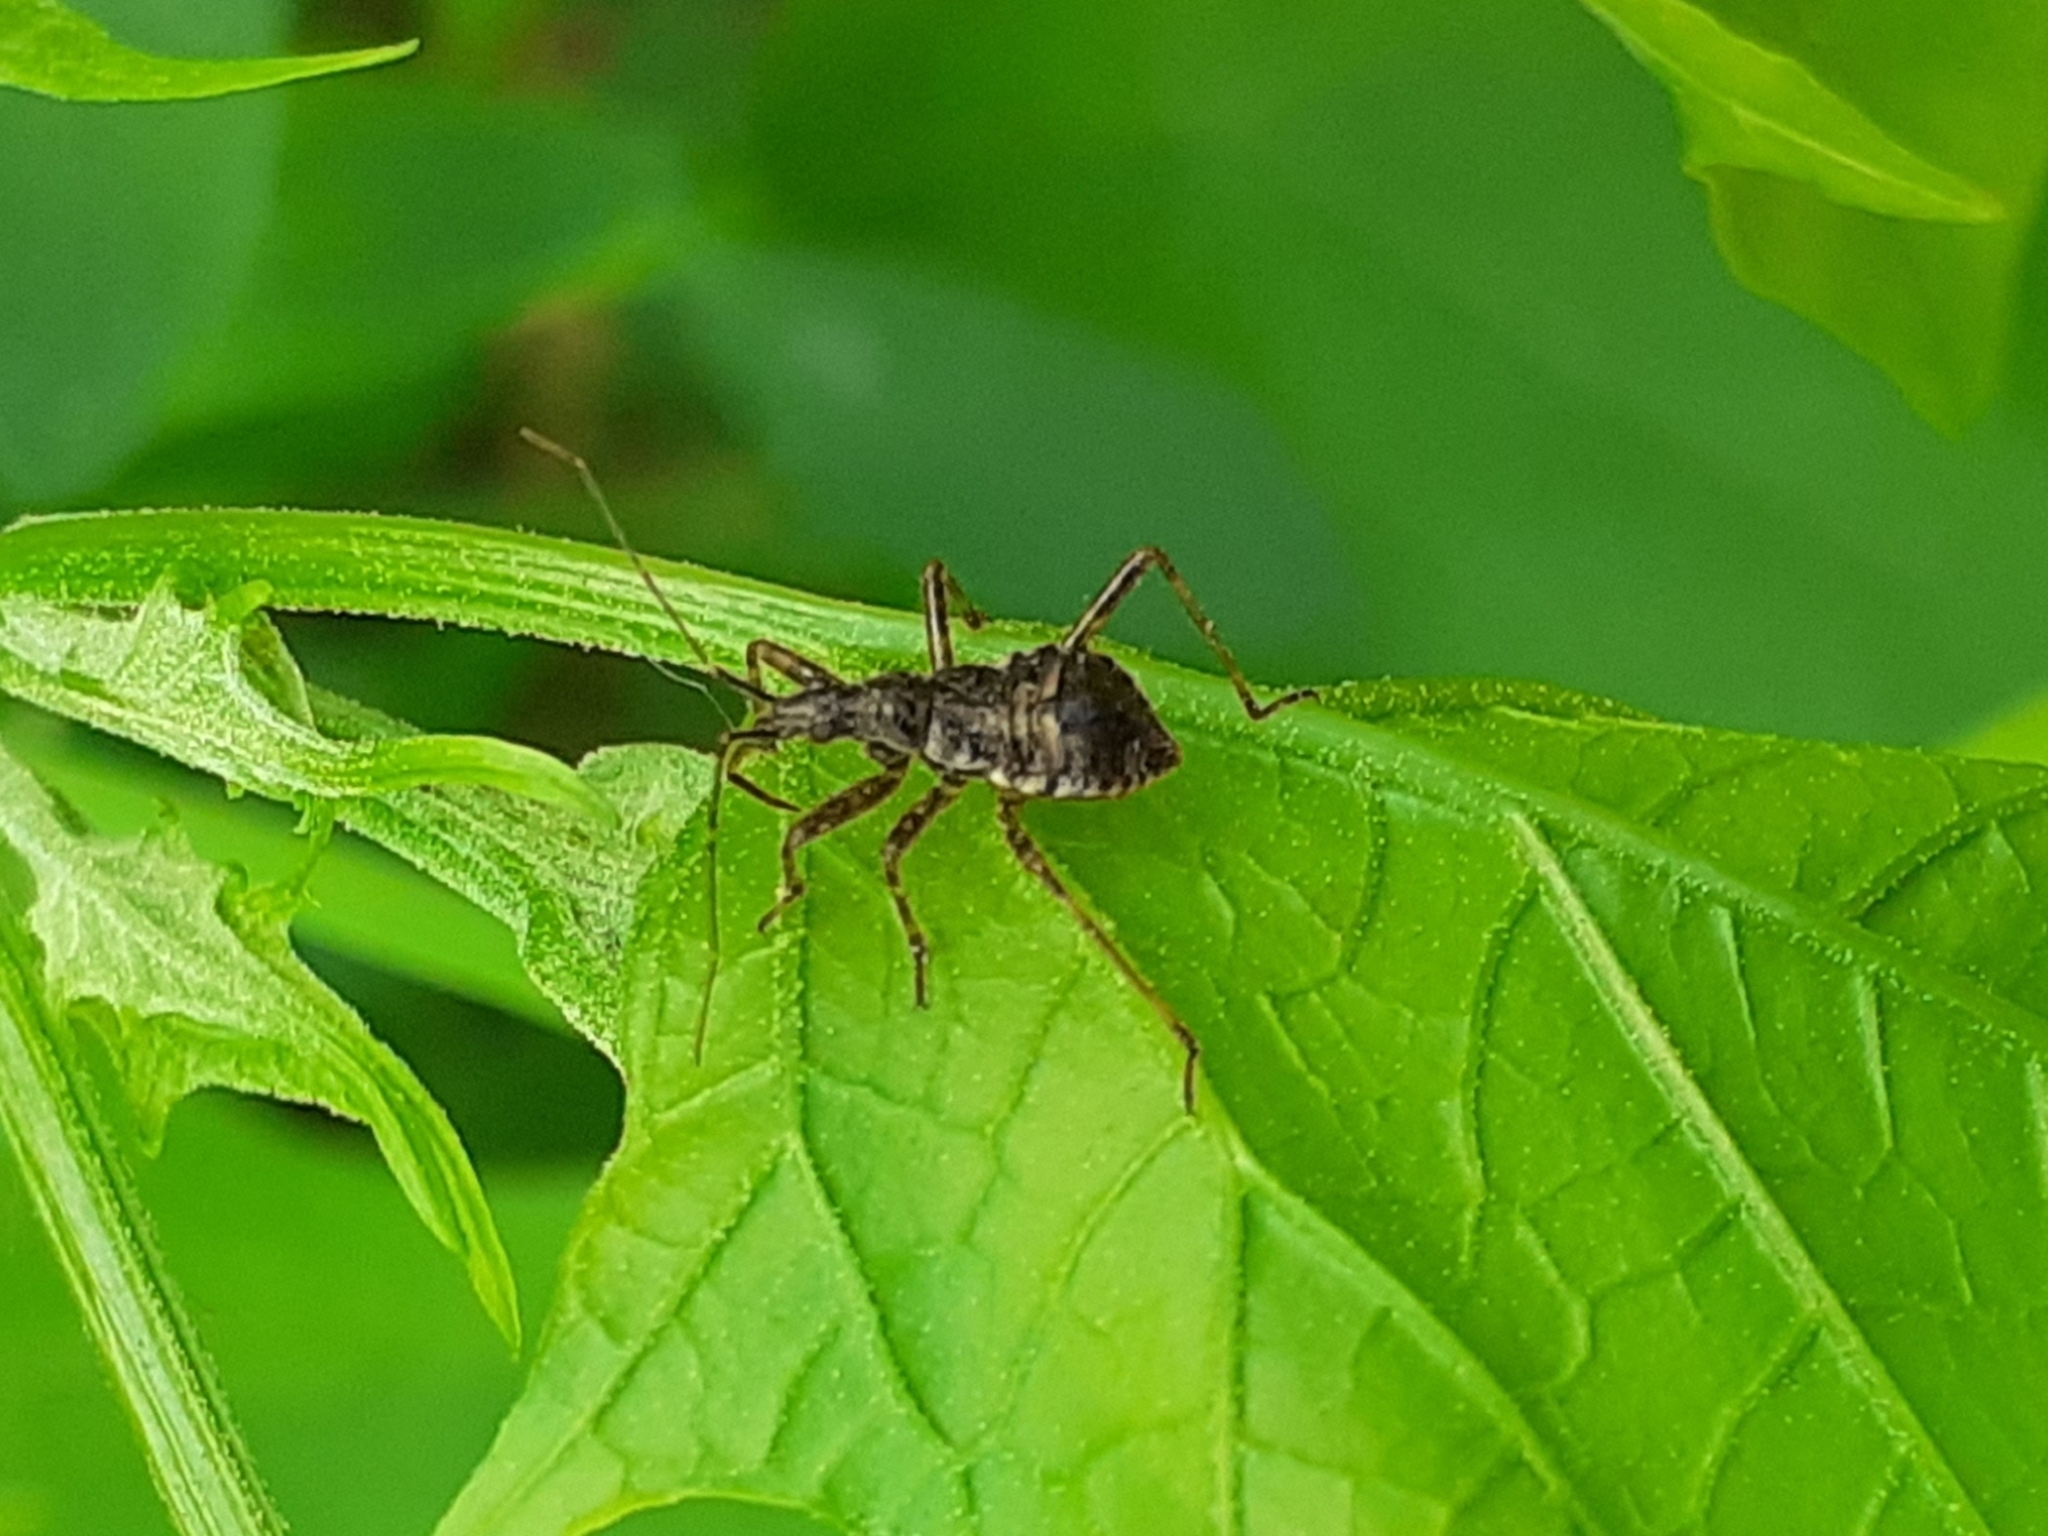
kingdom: Animalia
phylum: Arthropoda
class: Insecta
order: Hemiptera
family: Nabidae
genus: Himacerus
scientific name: Himacerus apterus
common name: Tree damsel bug
